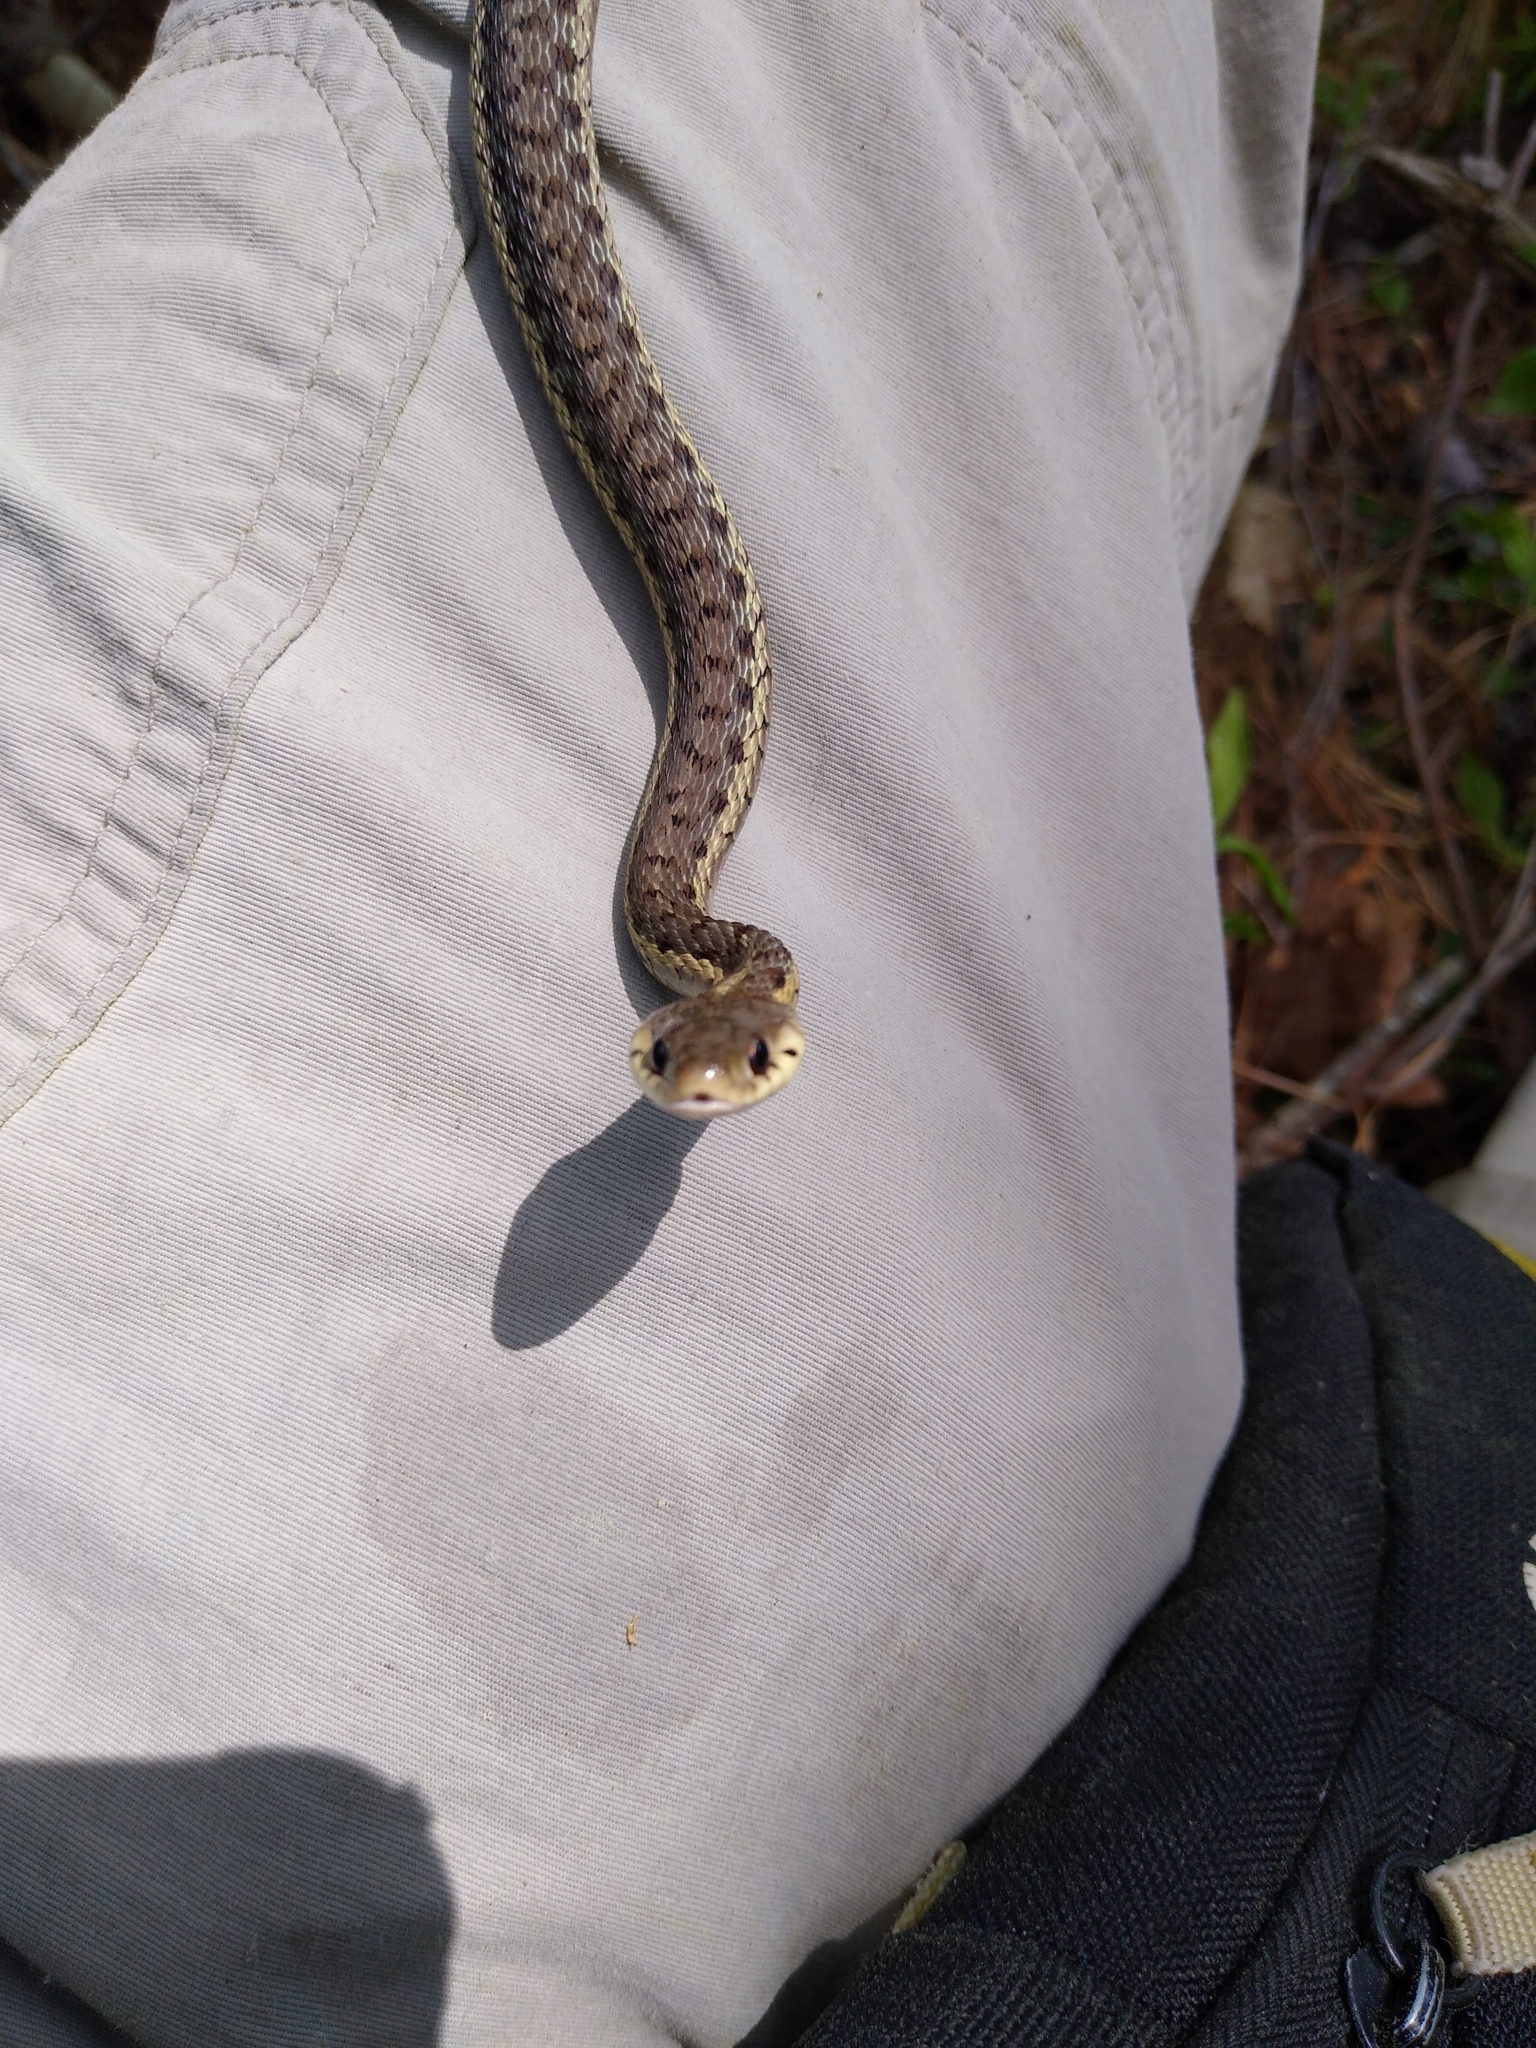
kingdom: Animalia
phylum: Chordata
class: Squamata
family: Colubridae
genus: Thamnophis
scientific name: Thamnophis sirtalis
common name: Common garter snake
